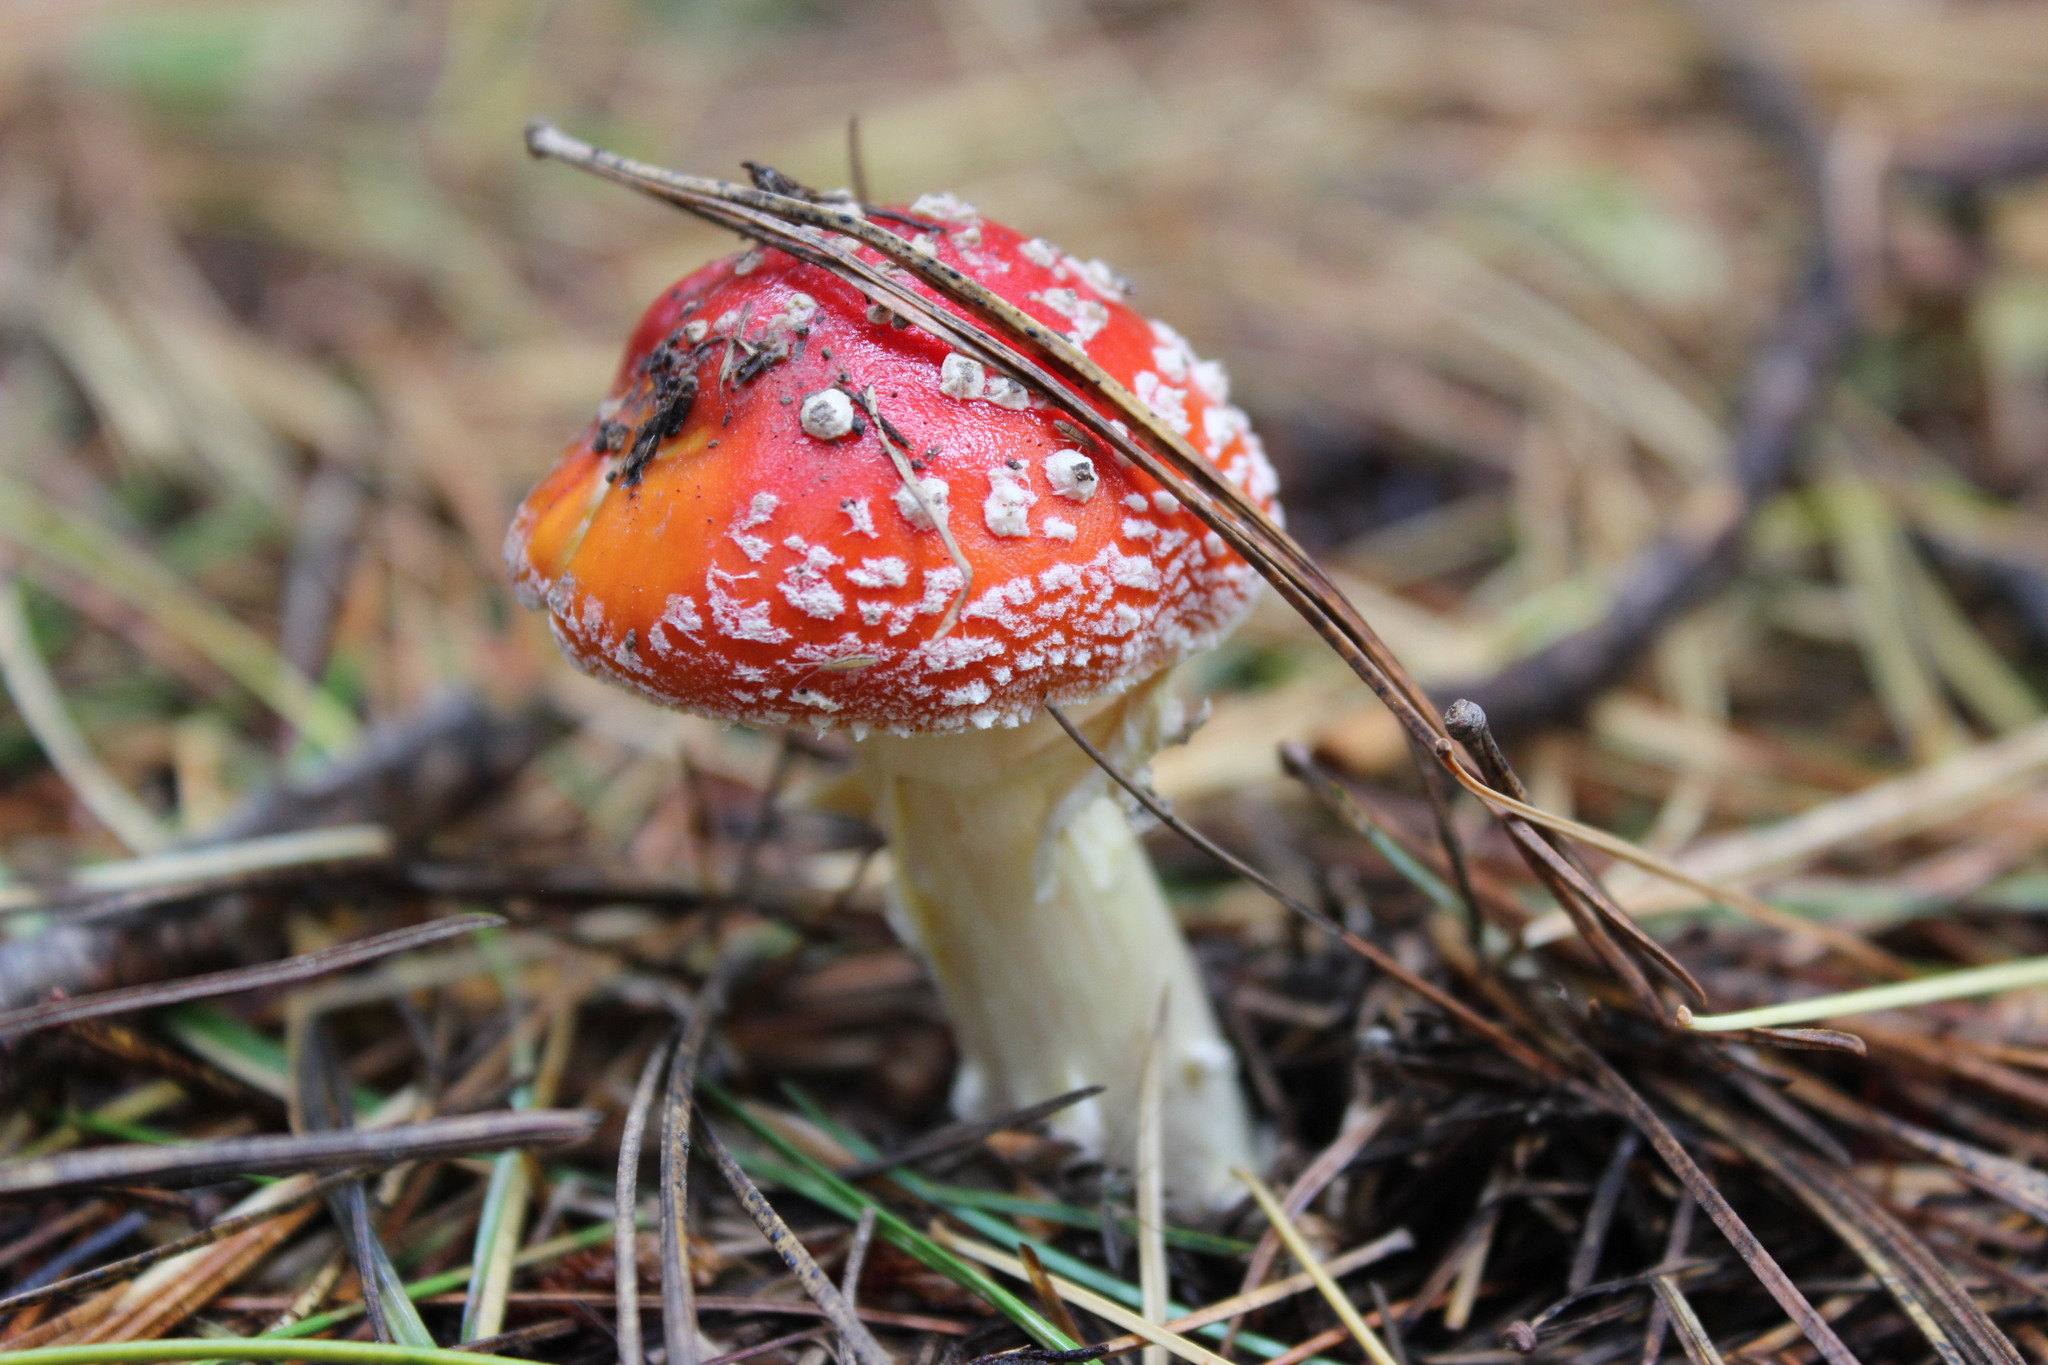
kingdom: Fungi
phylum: Basidiomycota
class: Agaricomycetes
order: Agaricales
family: Amanitaceae
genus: Amanita
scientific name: Amanita muscaria
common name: Fly agaric
